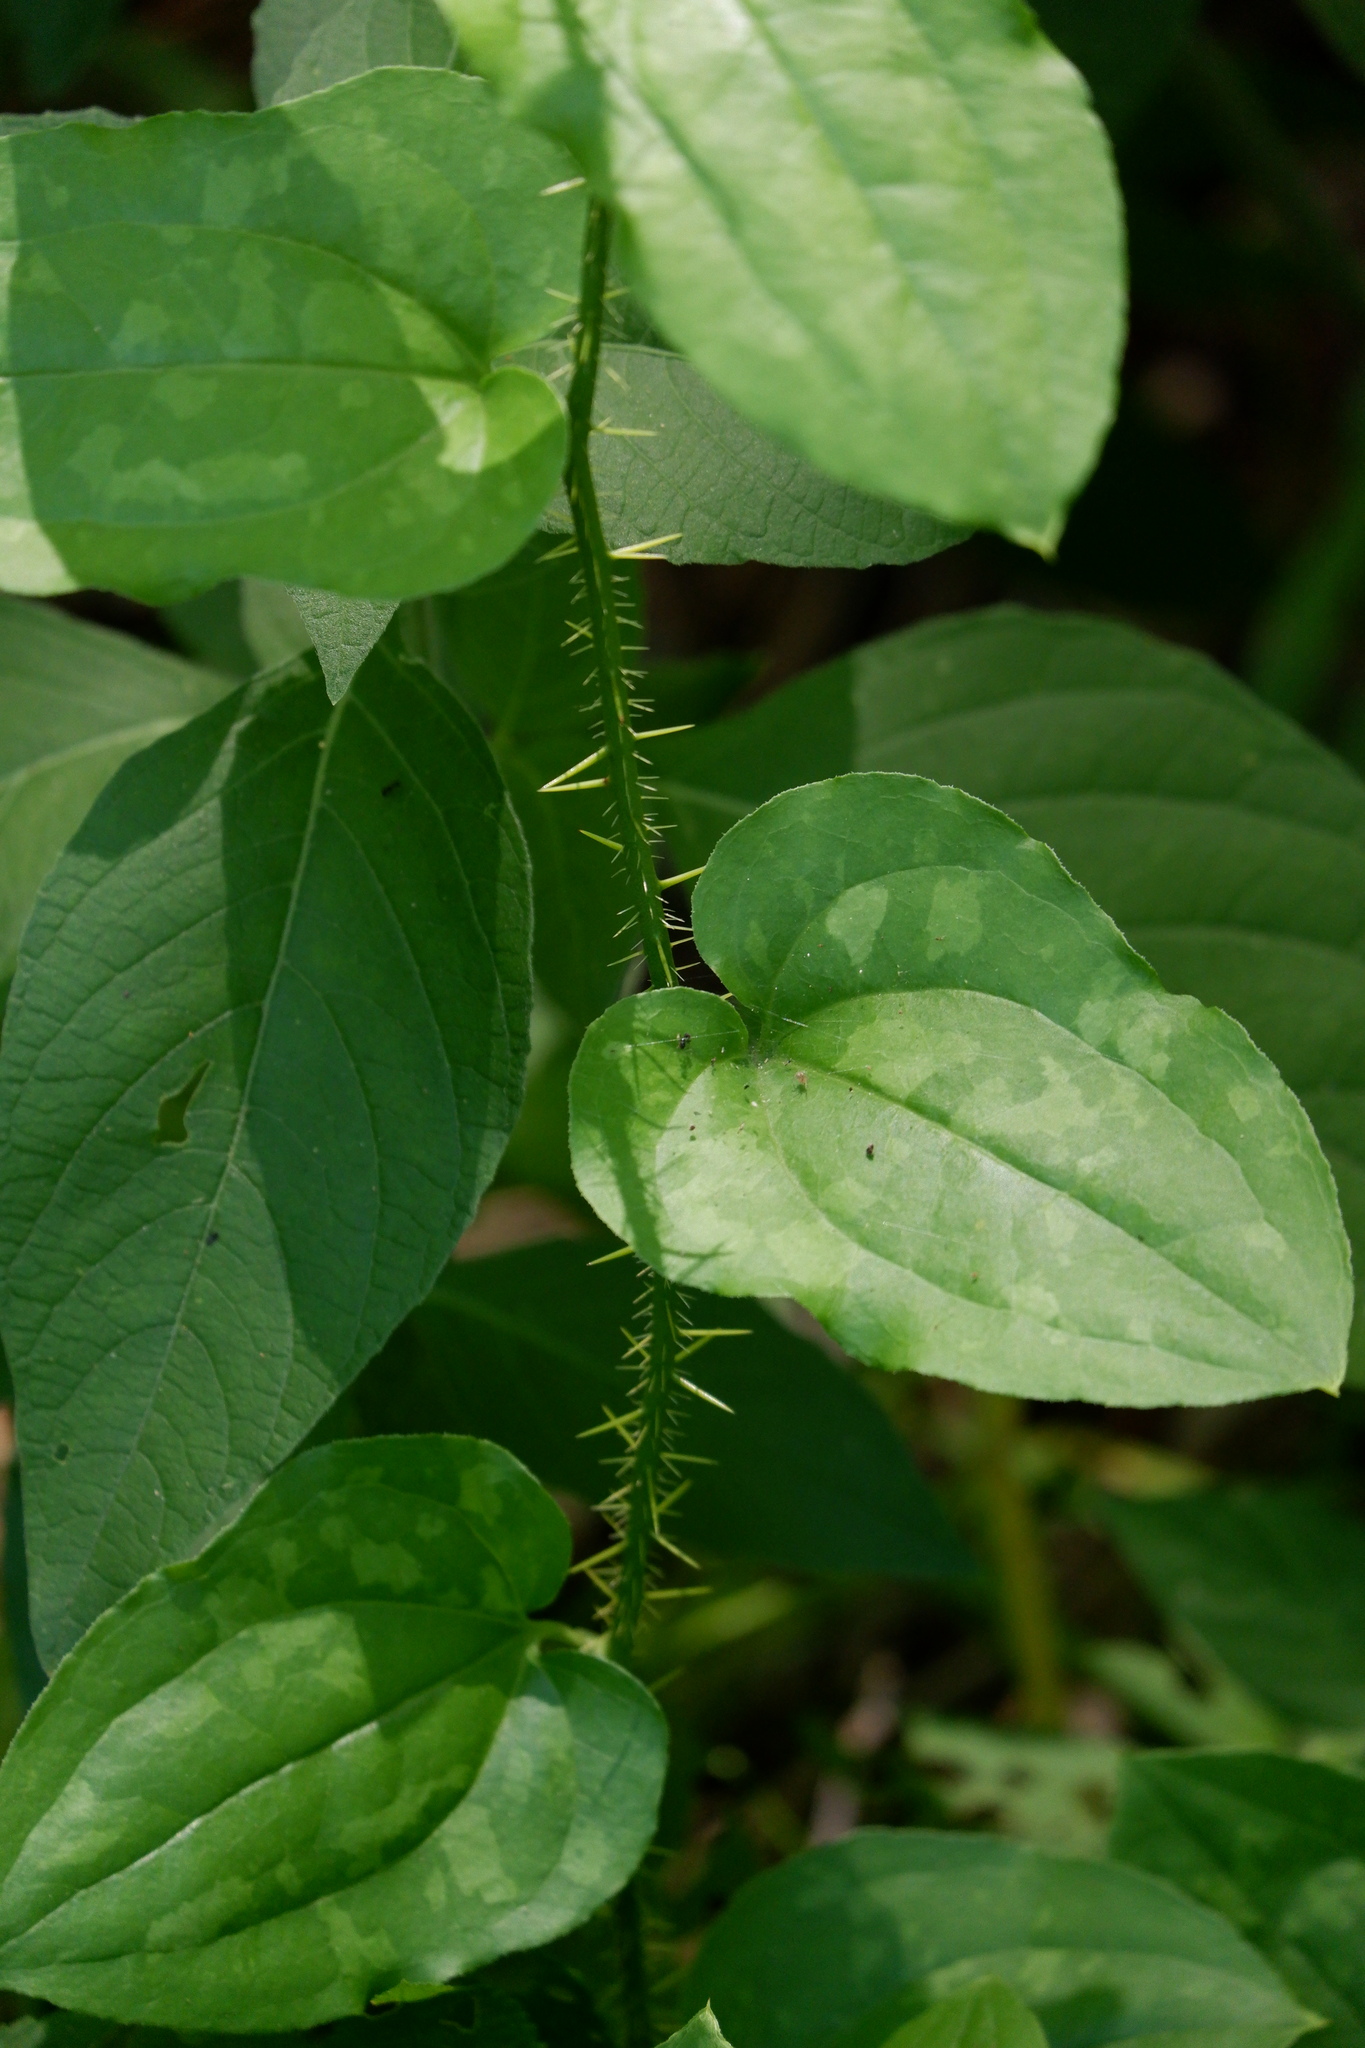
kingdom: Plantae
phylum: Tracheophyta
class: Liliopsida
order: Liliales
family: Smilacaceae
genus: Smilax
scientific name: Smilax tamnoides
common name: Hellfetter
